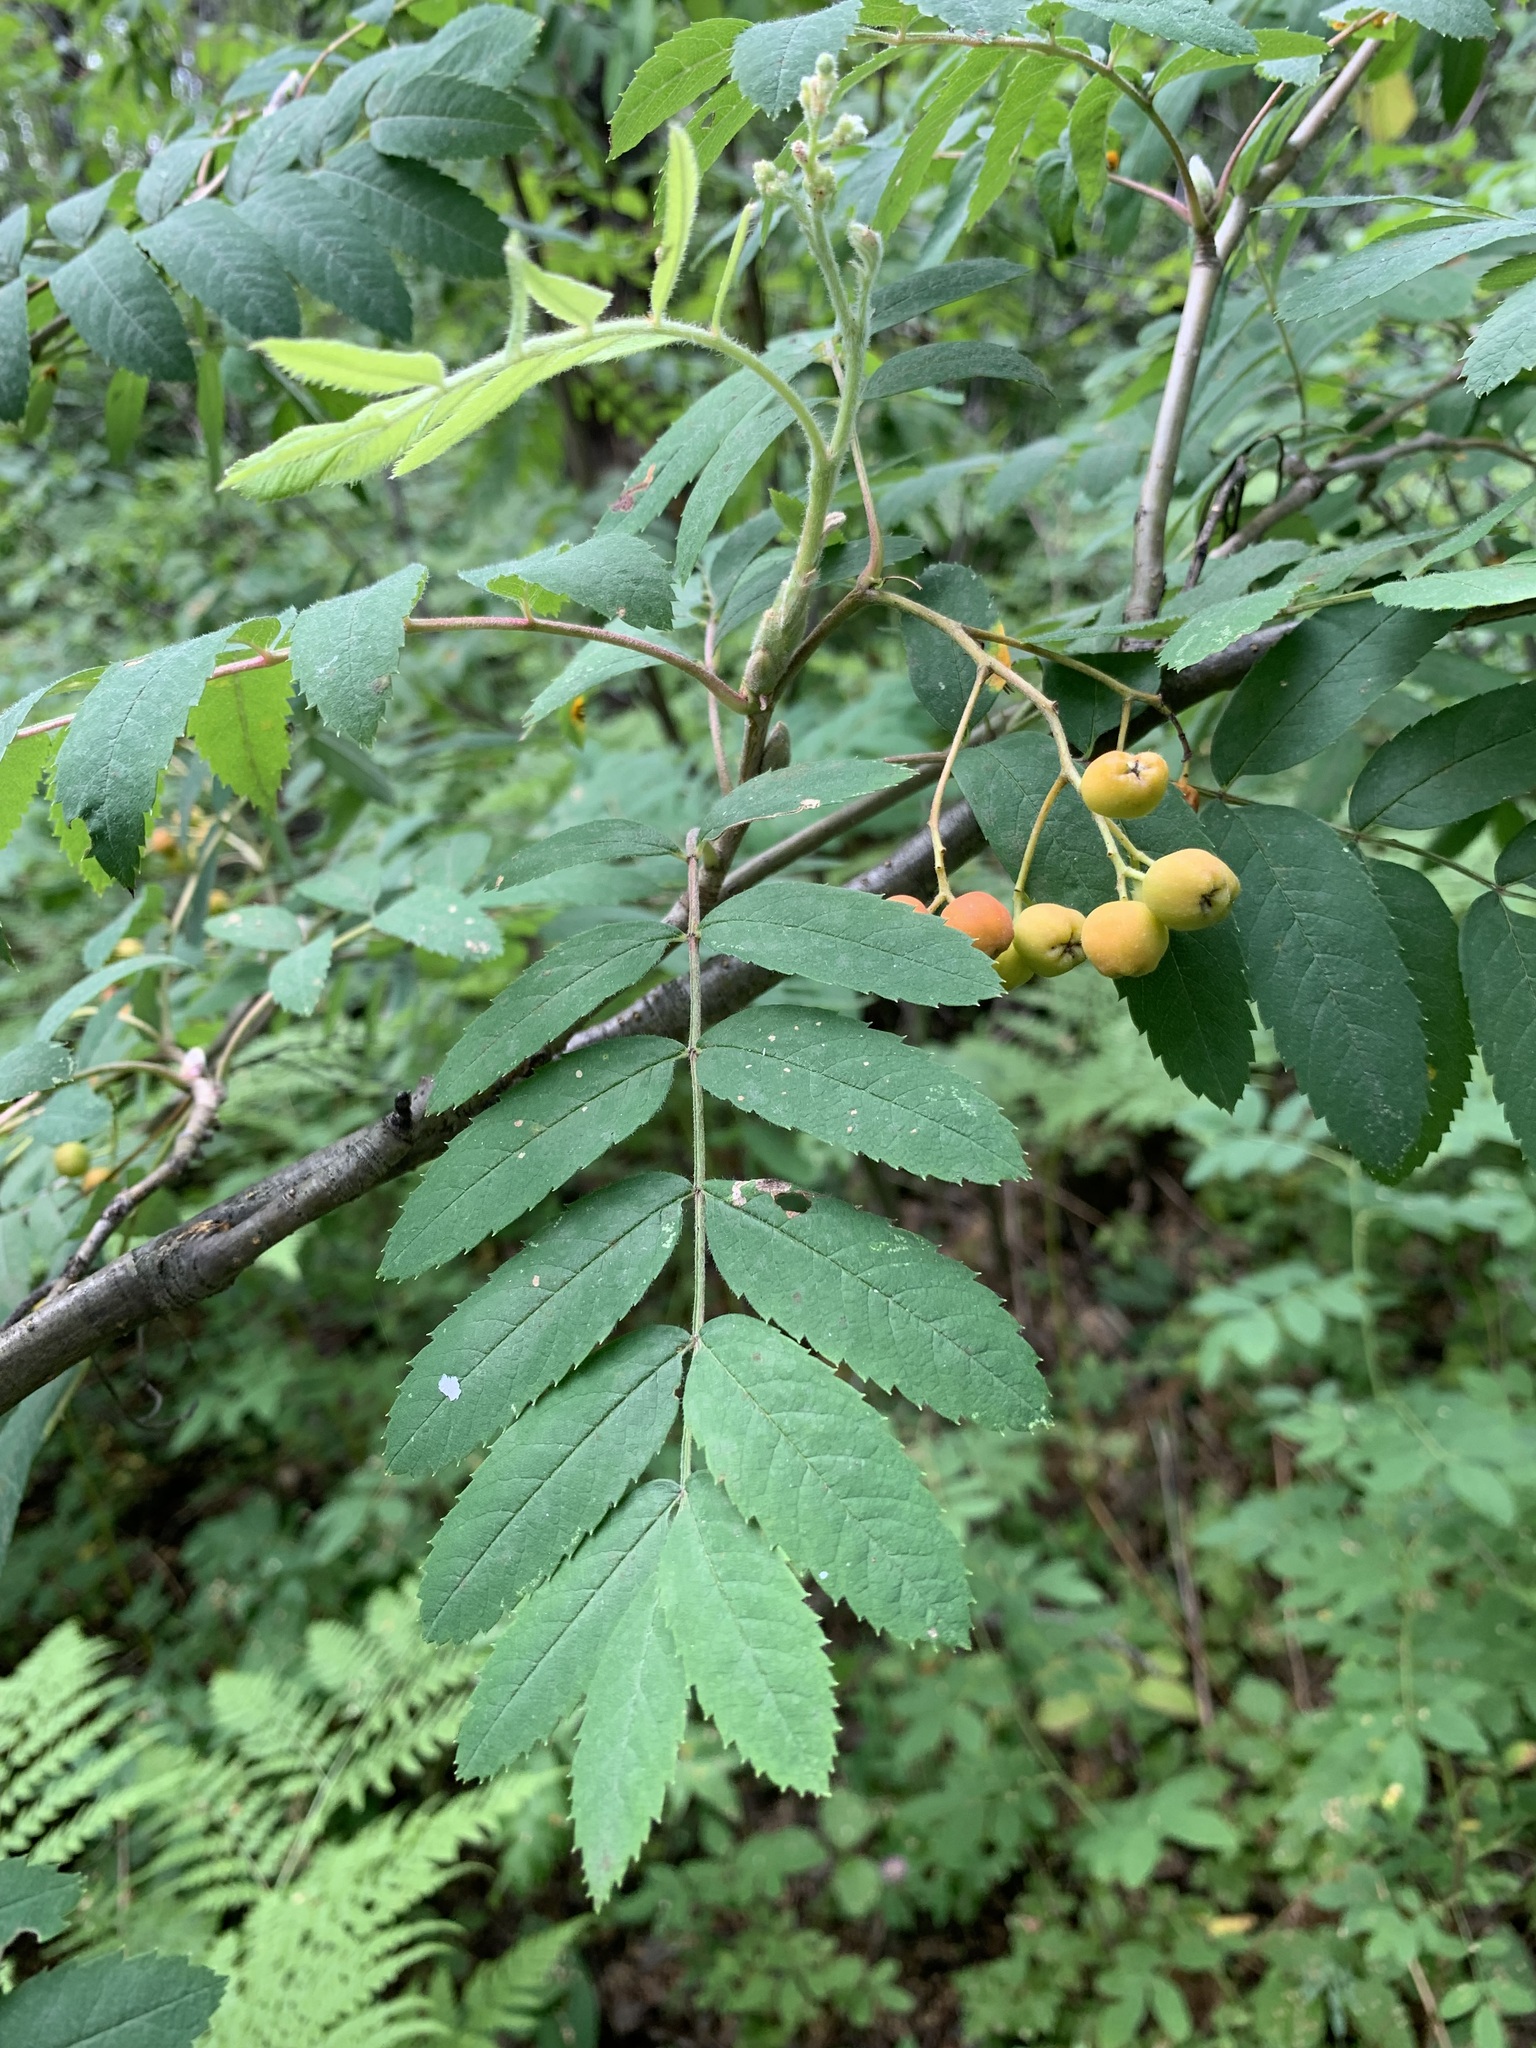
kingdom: Plantae
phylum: Tracheophyta
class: Magnoliopsida
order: Rosales
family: Rosaceae
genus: Sorbus
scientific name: Sorbus aucuparia
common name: Rowan
